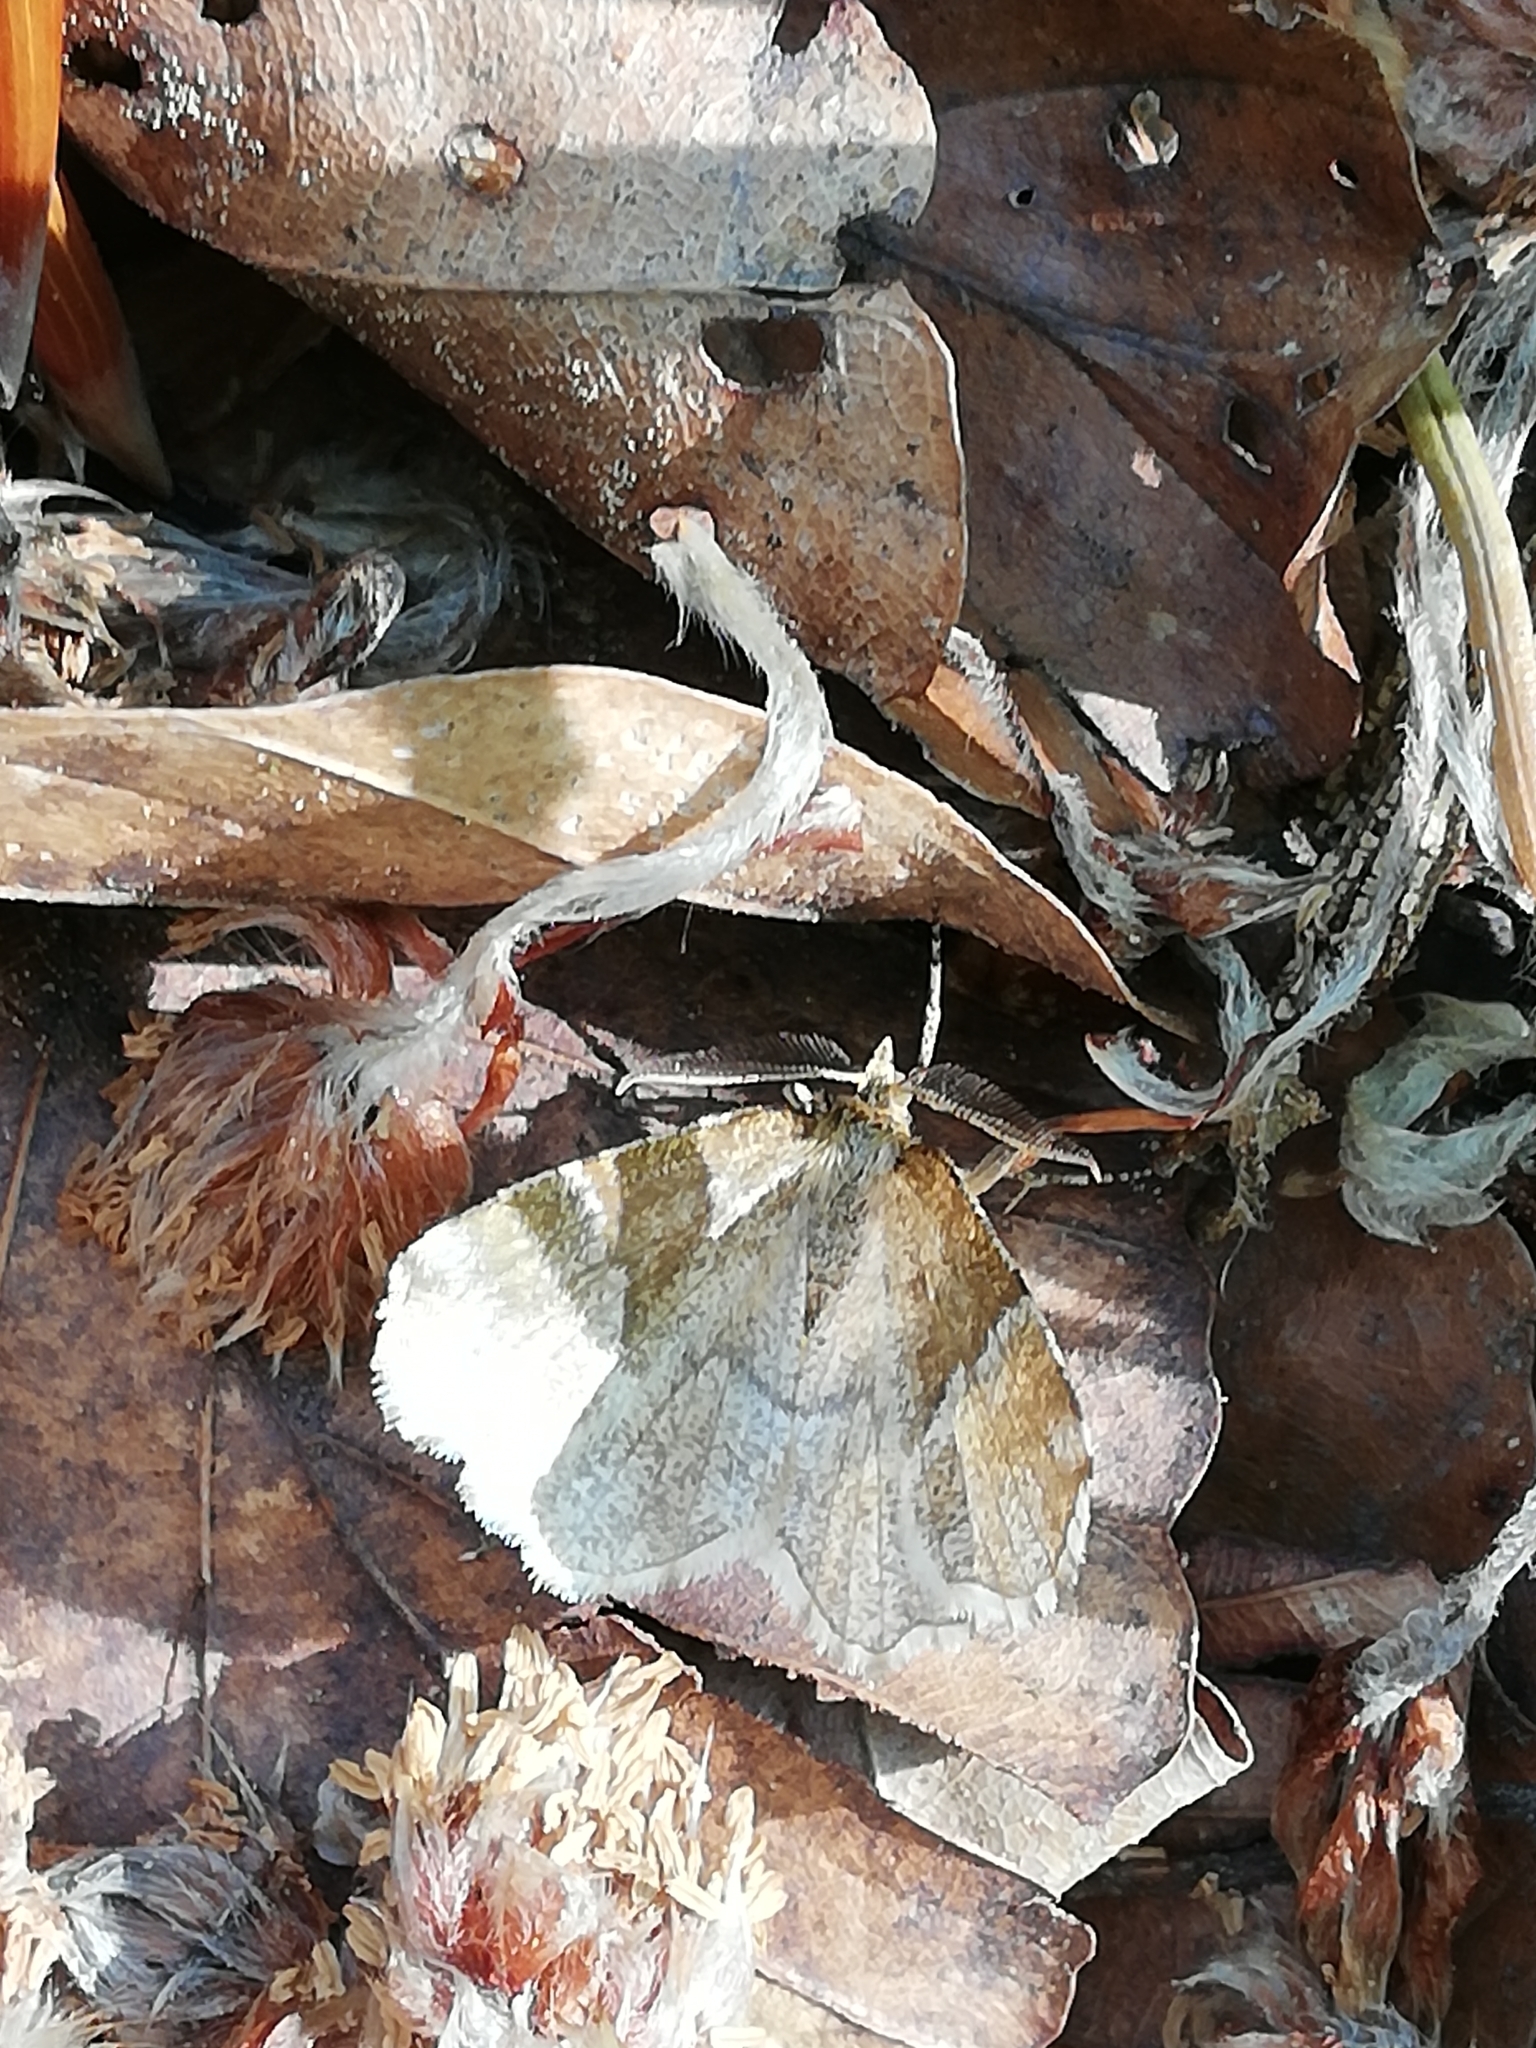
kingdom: Animalia
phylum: Arthropoda
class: Insecta
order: Lepidoptera
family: Geometridae
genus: Cepphis
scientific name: Cepphis advenaria
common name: Little thorn
